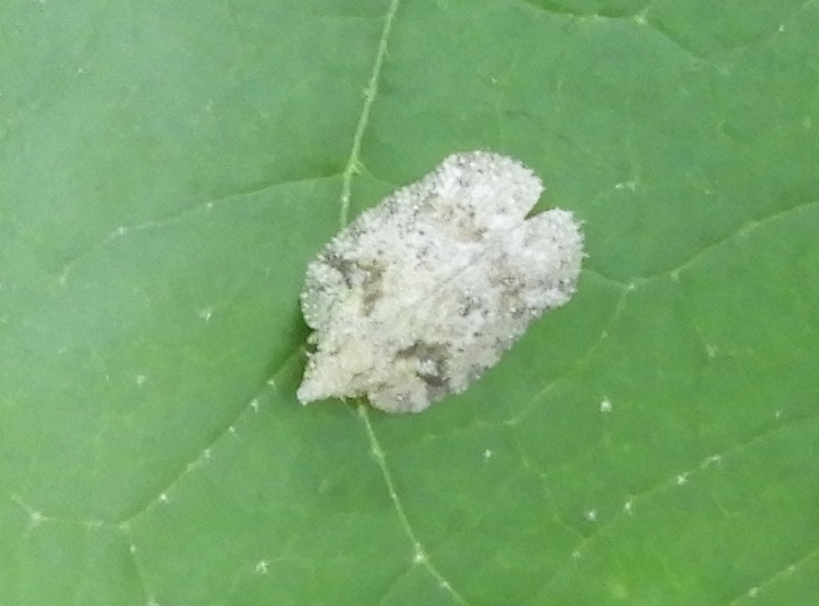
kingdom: Animalia
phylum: Arthropoda
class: Insecta
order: Hemiptera
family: Flatidae
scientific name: Flatidae
